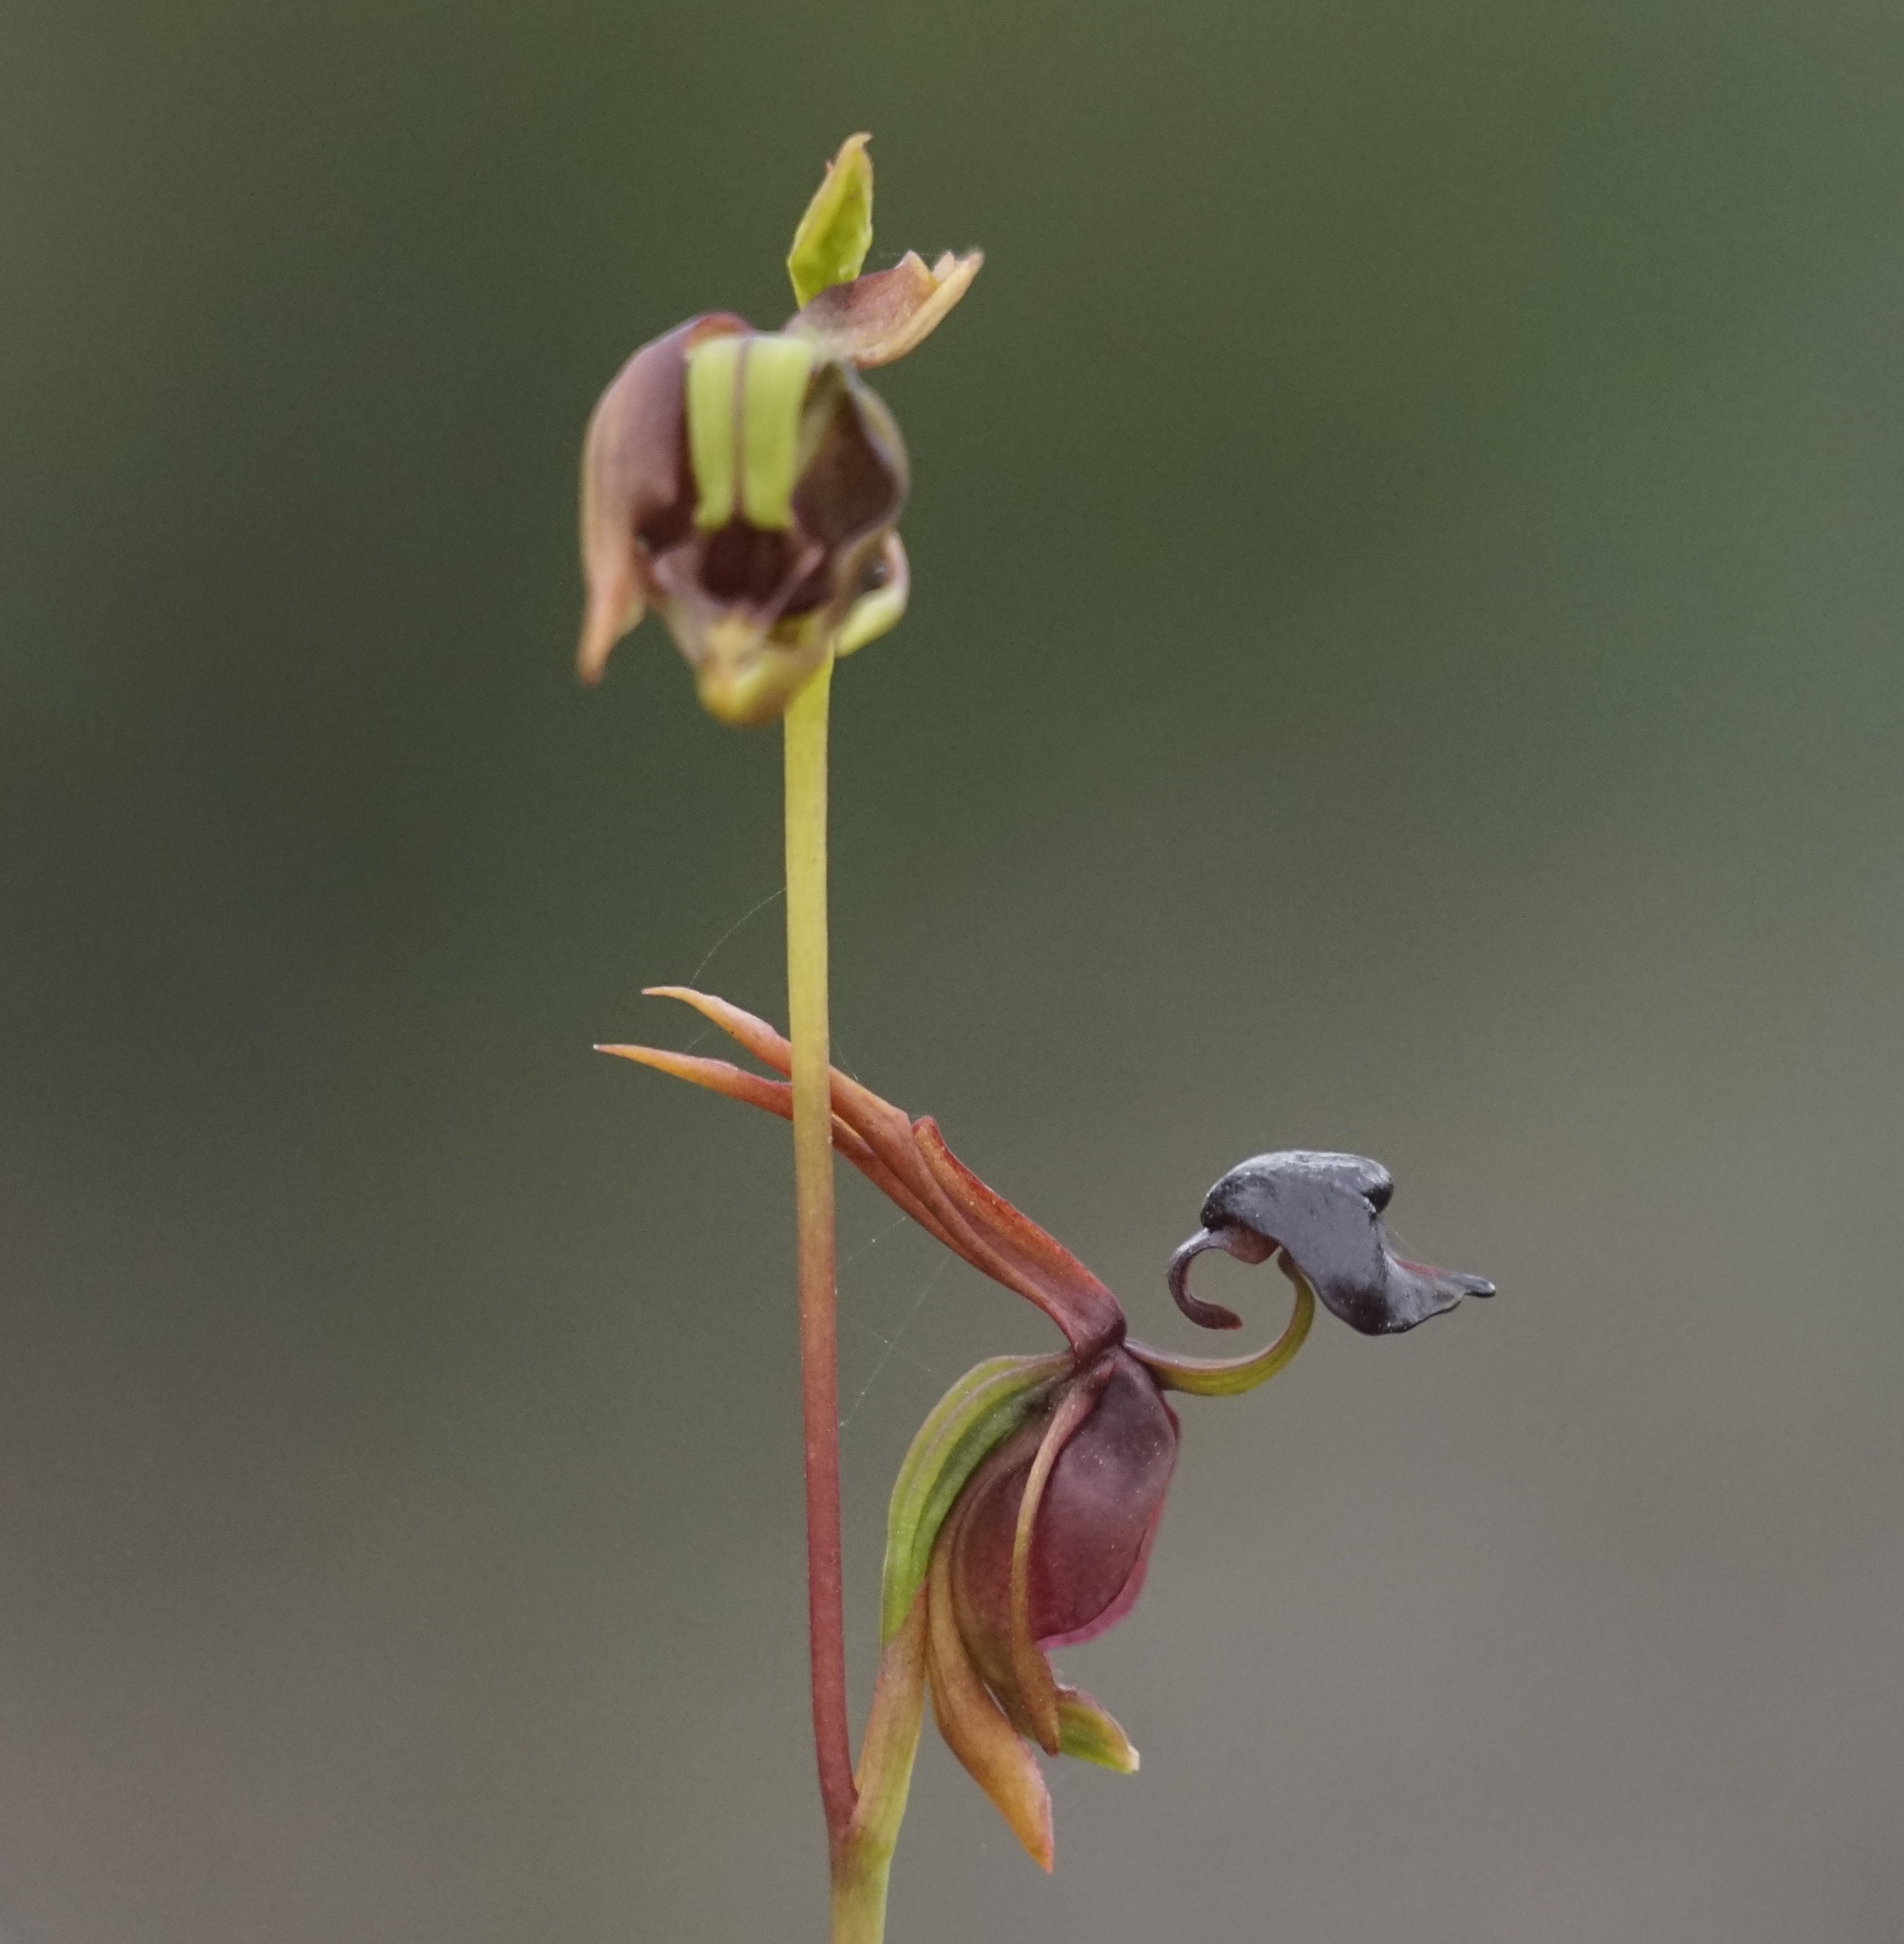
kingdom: Plantae
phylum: Tracheophyta
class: Liliopsida
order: Asparagales
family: Orchidaceae
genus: Caleana
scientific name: Caleana major
